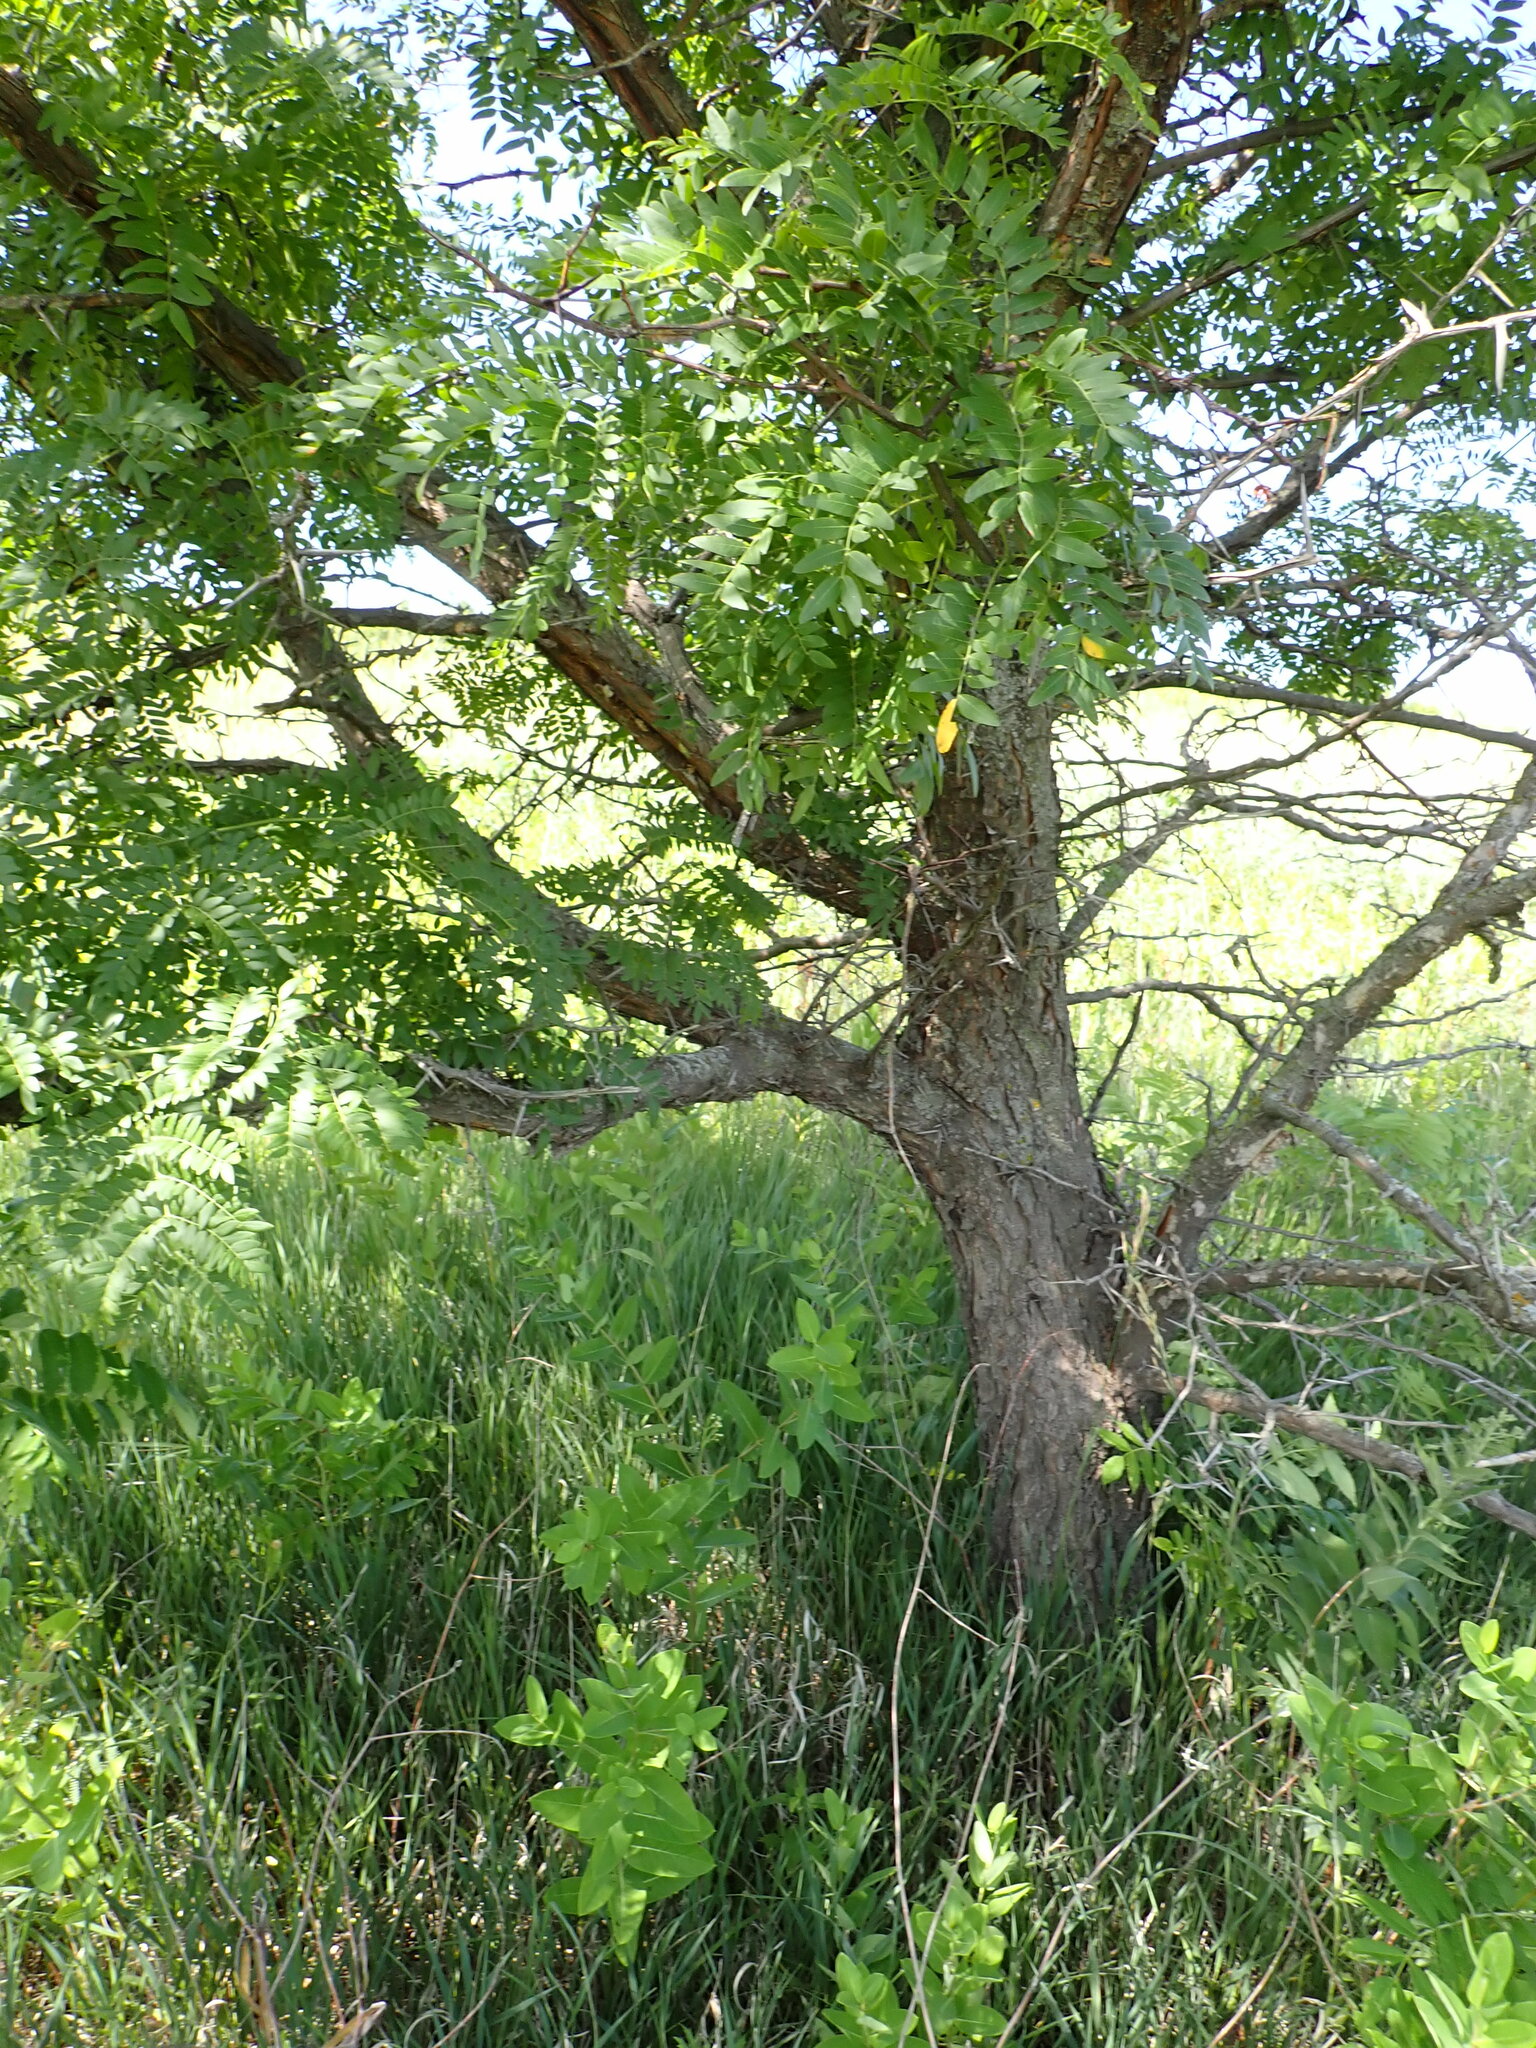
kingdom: Plantae
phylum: Tracheophyta
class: Magnoliopsida
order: Fabales
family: Fabaceae
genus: Gleditsia
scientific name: Gleditsia triacanthos
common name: Common honeylocust
